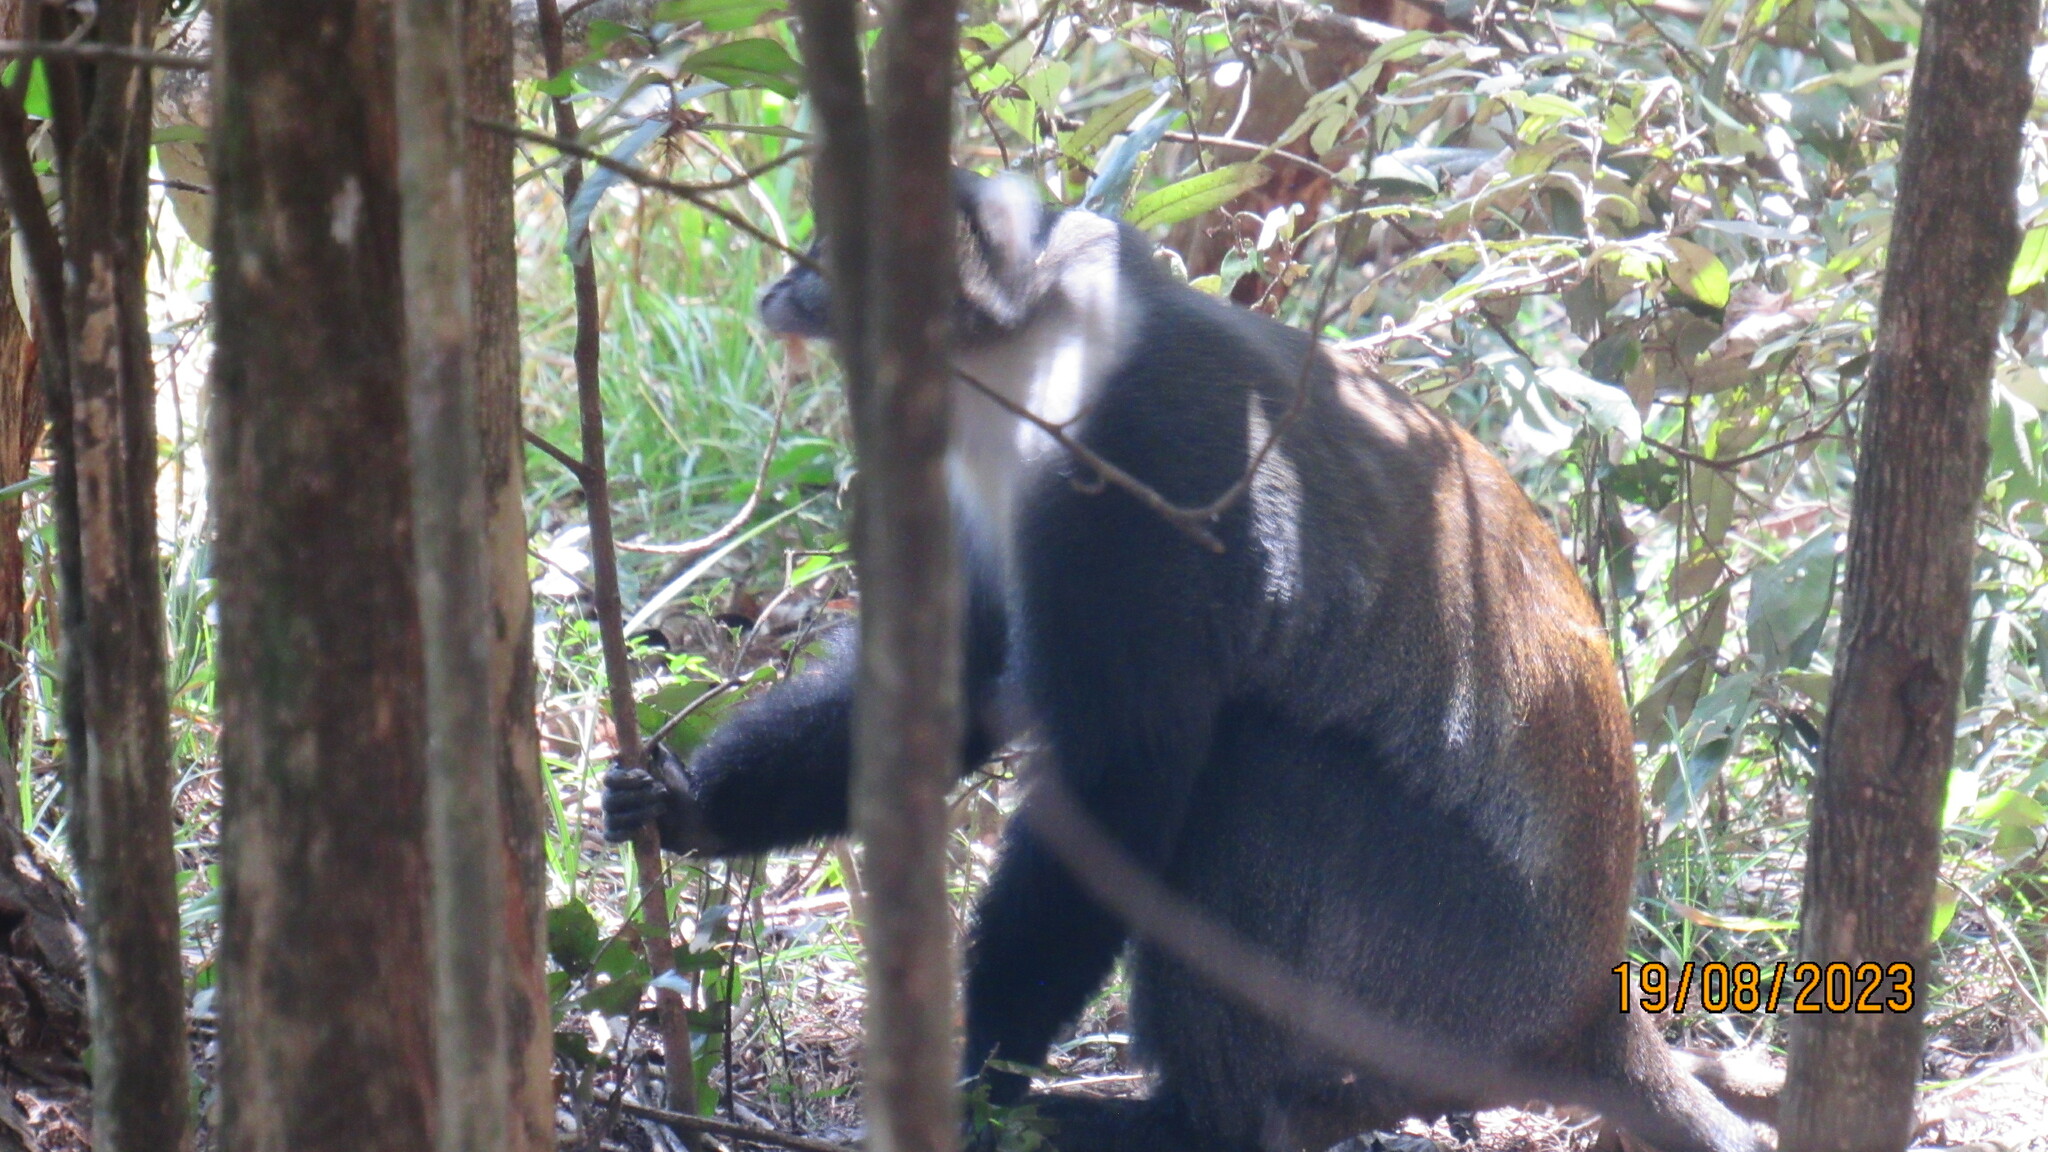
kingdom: Animalia
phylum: Chordata
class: Mammalia
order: Primates
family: Cercopithecidae
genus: Cercopithecus
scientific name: Cercopithecus mitis
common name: Blue monkey
